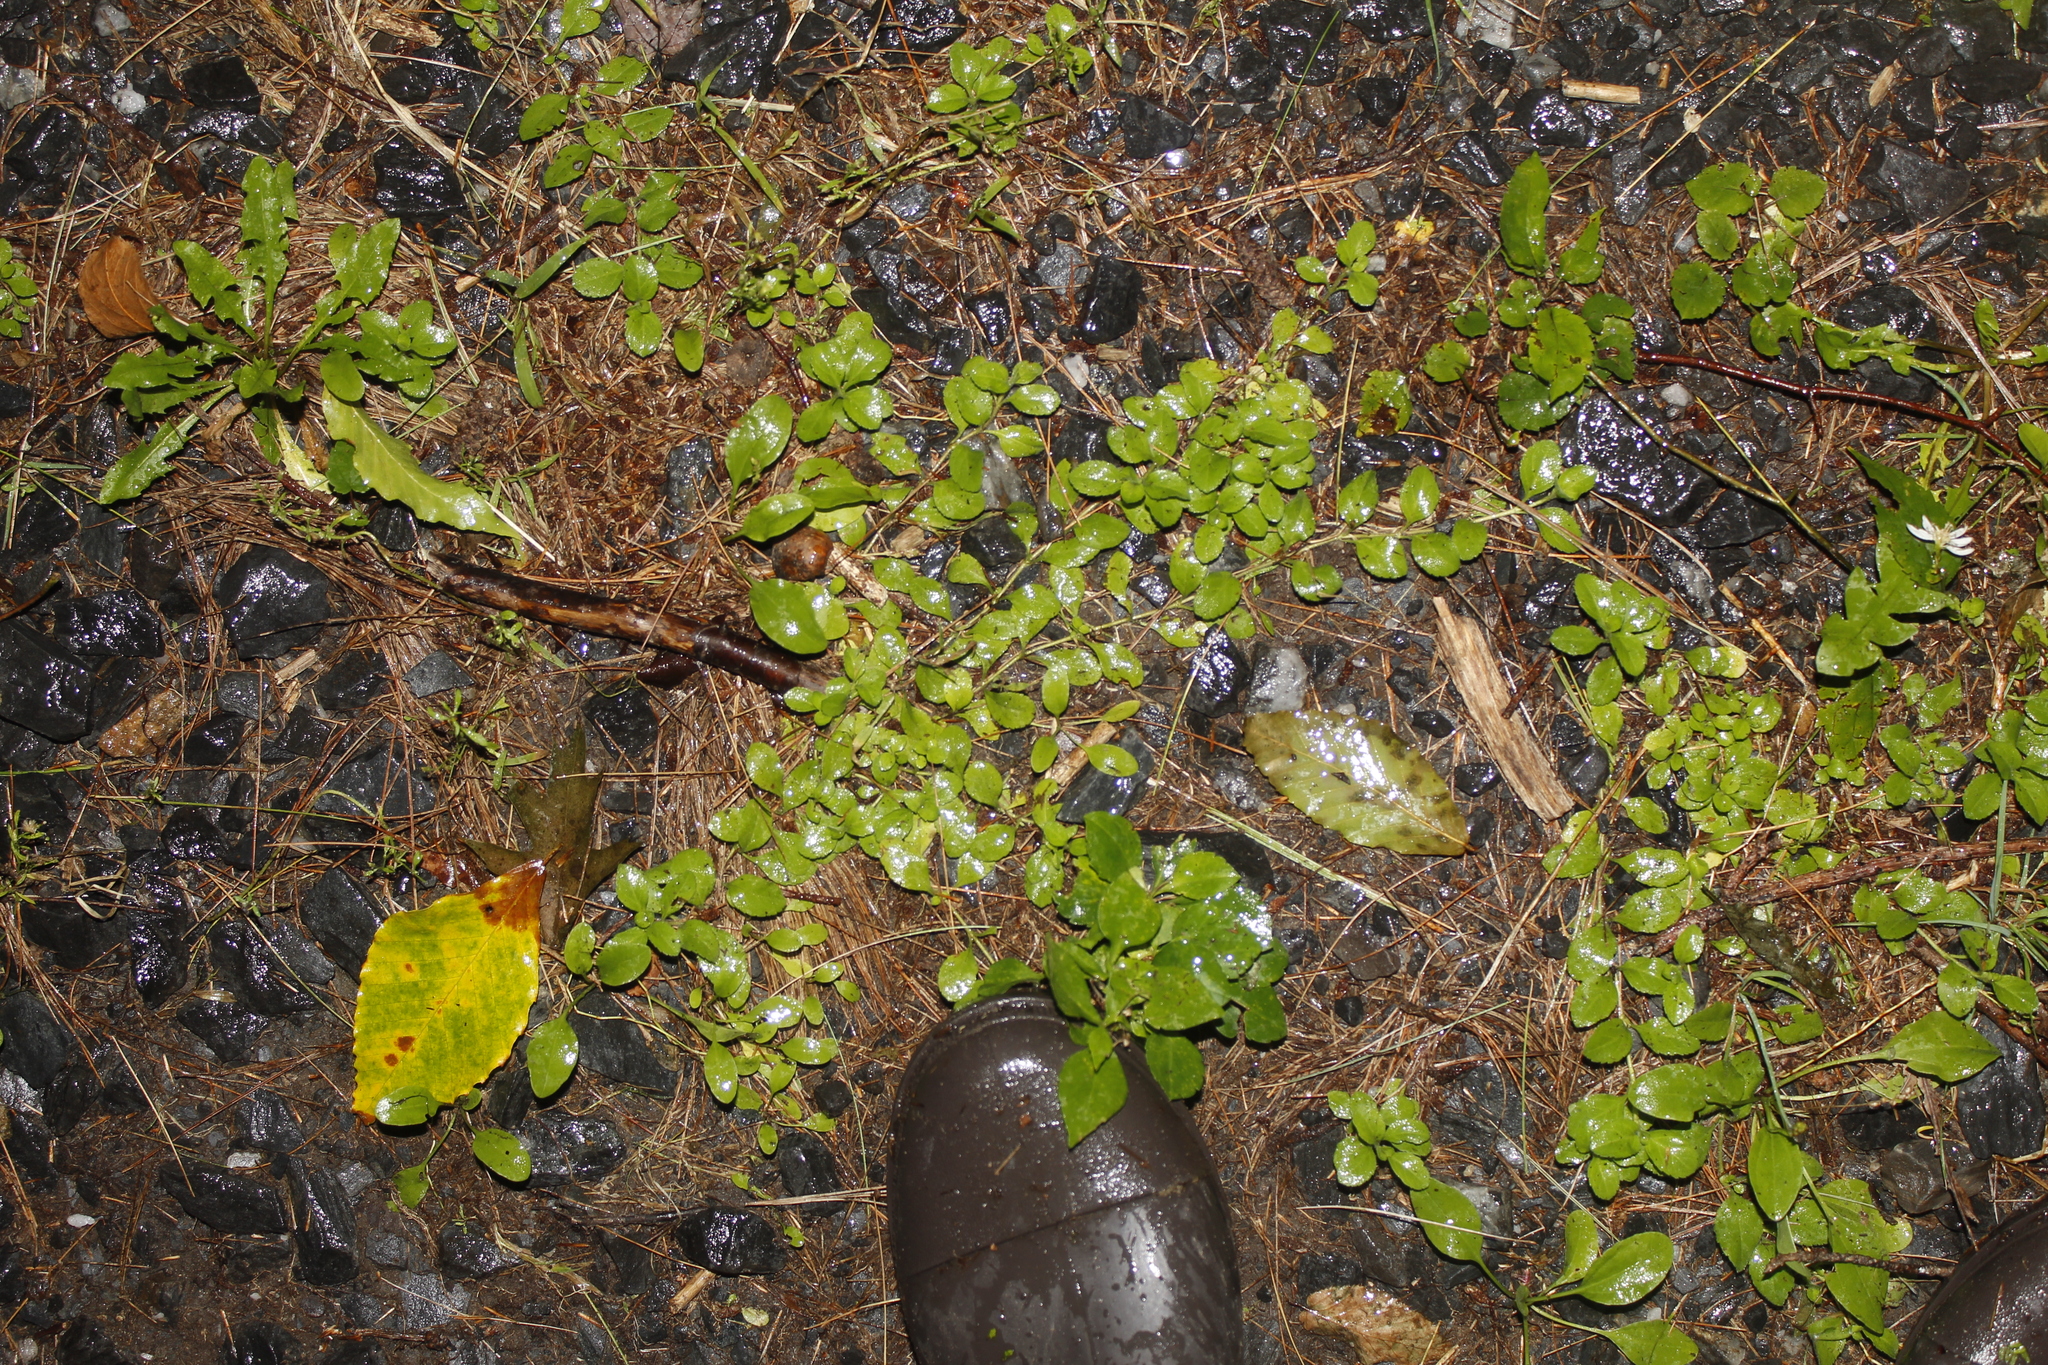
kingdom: Plantae
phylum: Tracheophyta
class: Magnoliopsida
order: Lamiales
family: Plantaginaceae
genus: Veronica
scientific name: Veronica officinalis
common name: Common speedwell
